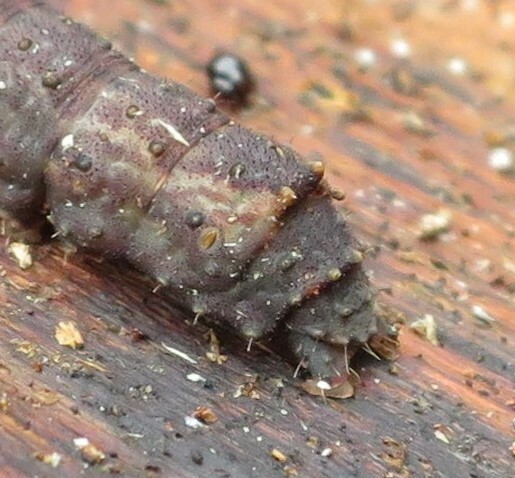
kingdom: Animalia
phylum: Arthropoda
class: Insecta
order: Lepidoptera
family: Erebidae
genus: Rhapsa
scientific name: Rhapsa scotosialis
